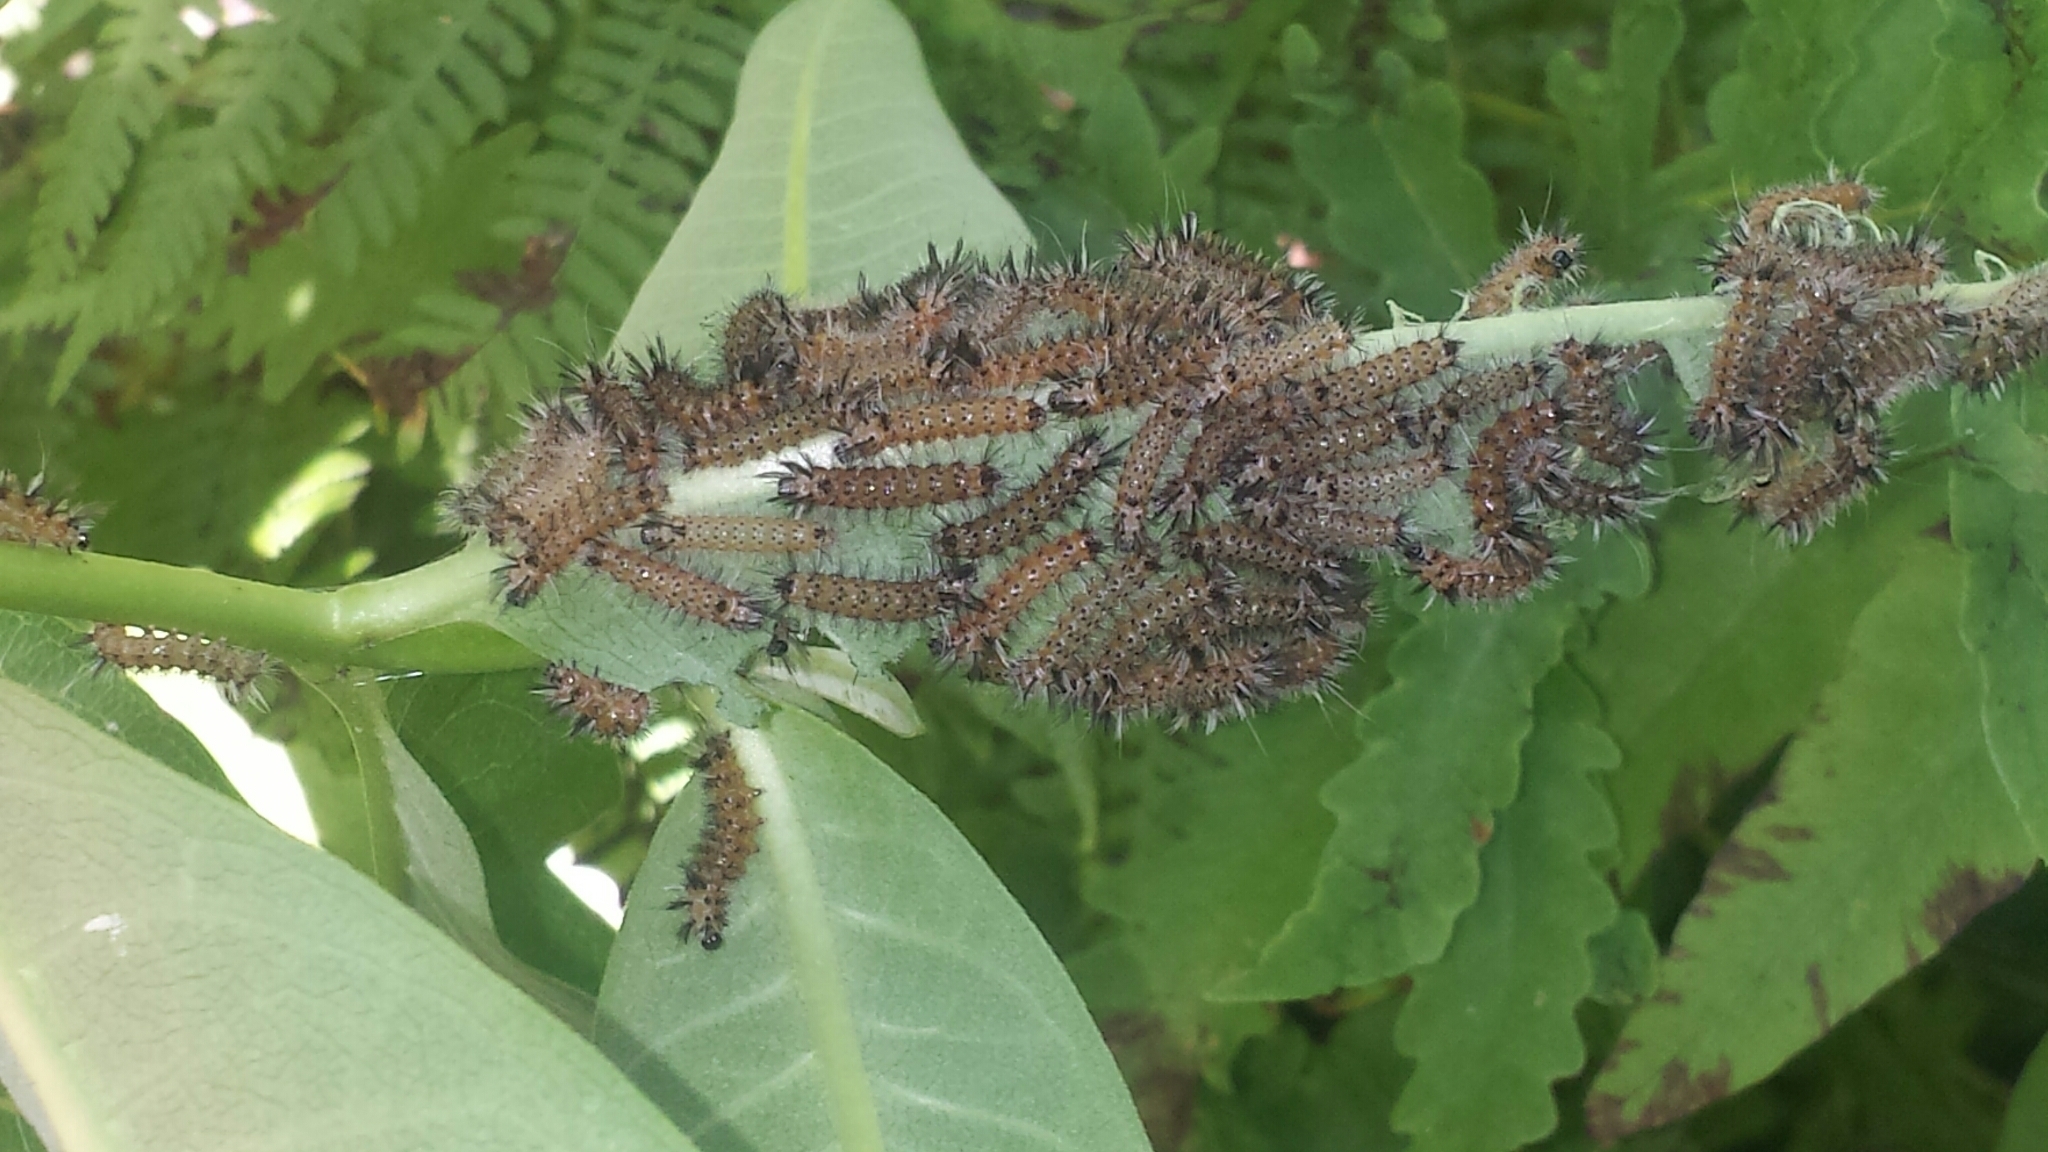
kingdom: Animalia
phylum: Arthropoda
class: Insecta
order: Lepidoptera
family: Erebidae
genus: Euchaetes
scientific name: Euchaetes egle
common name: Milkweed tussock moth
